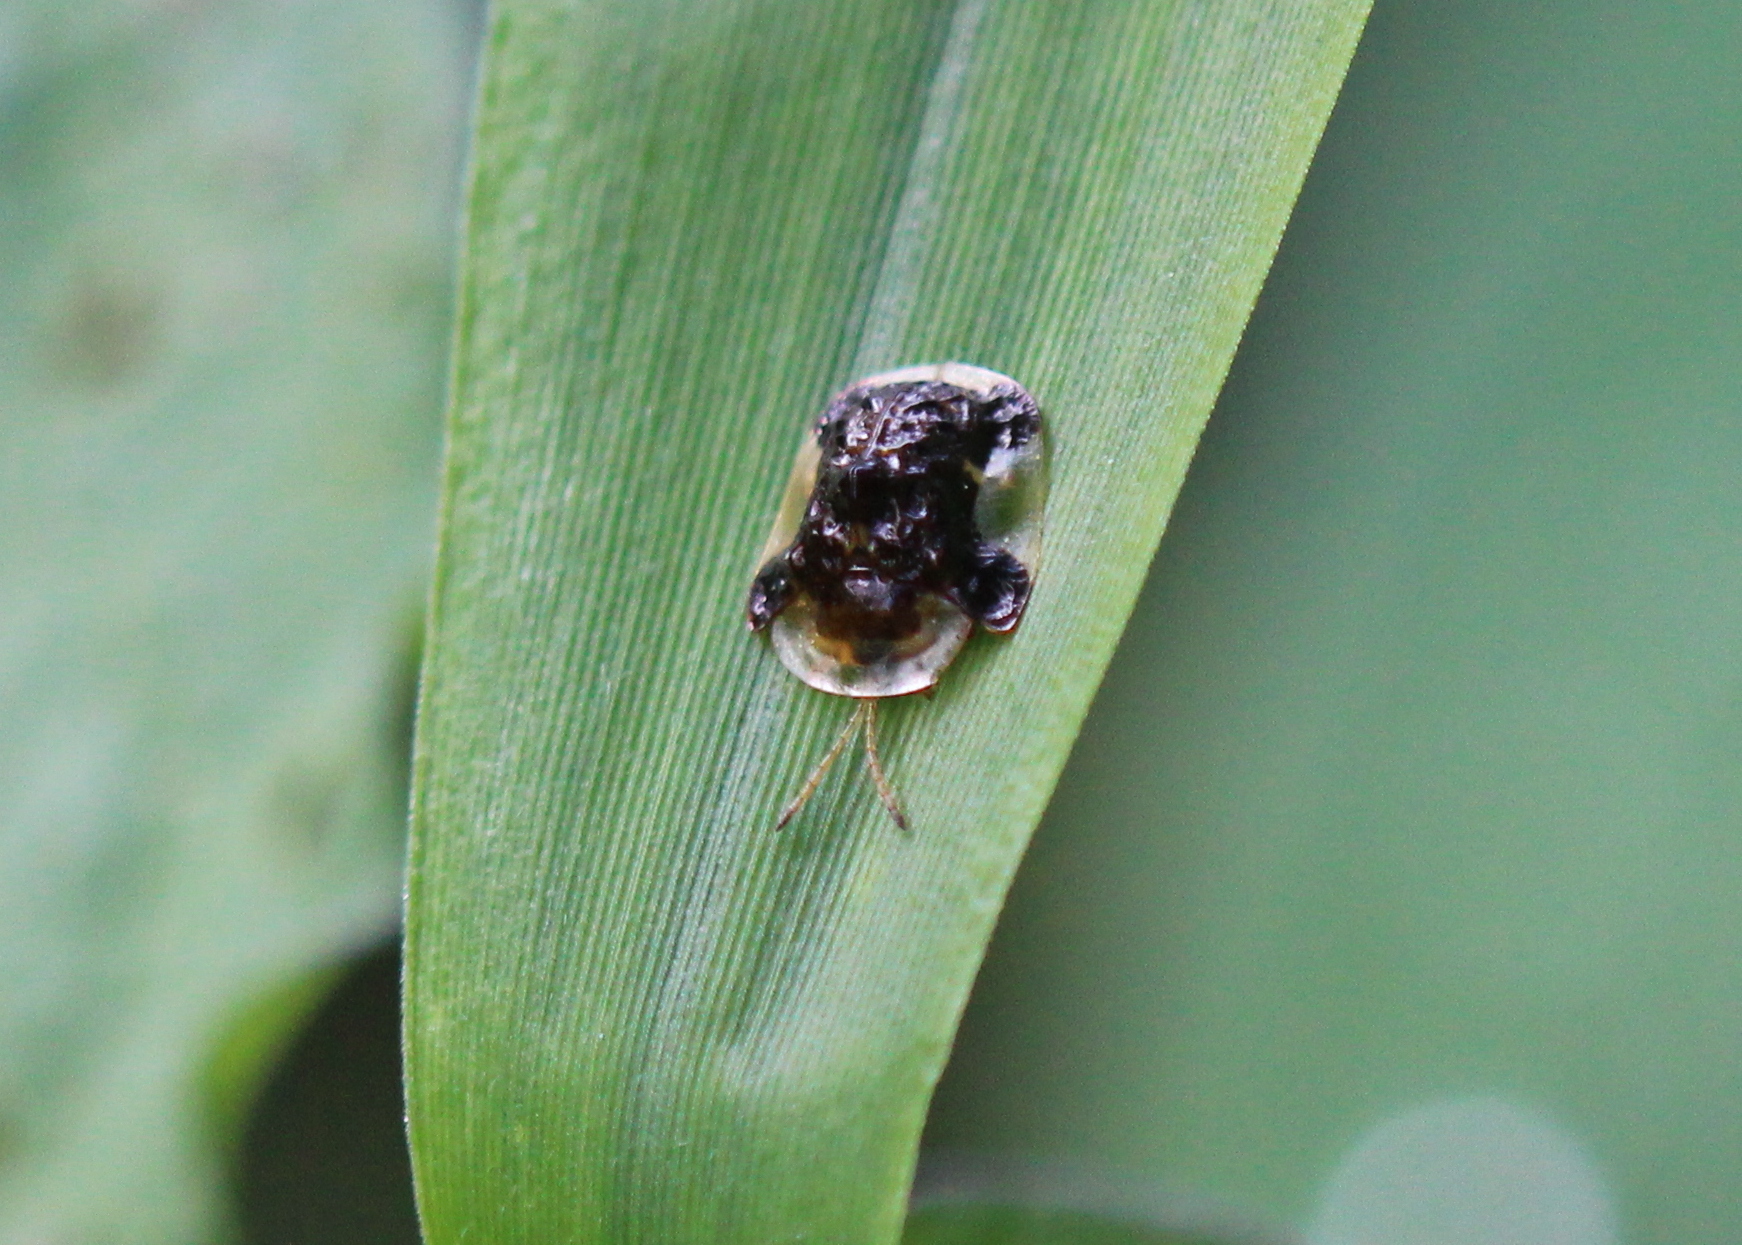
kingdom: Animalia
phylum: Arthropoda
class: Insecta
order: Coleoptera
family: Chrysomelidae
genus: Helocassis
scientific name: Helocassis clavata
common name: Clavate tortoise beetle
